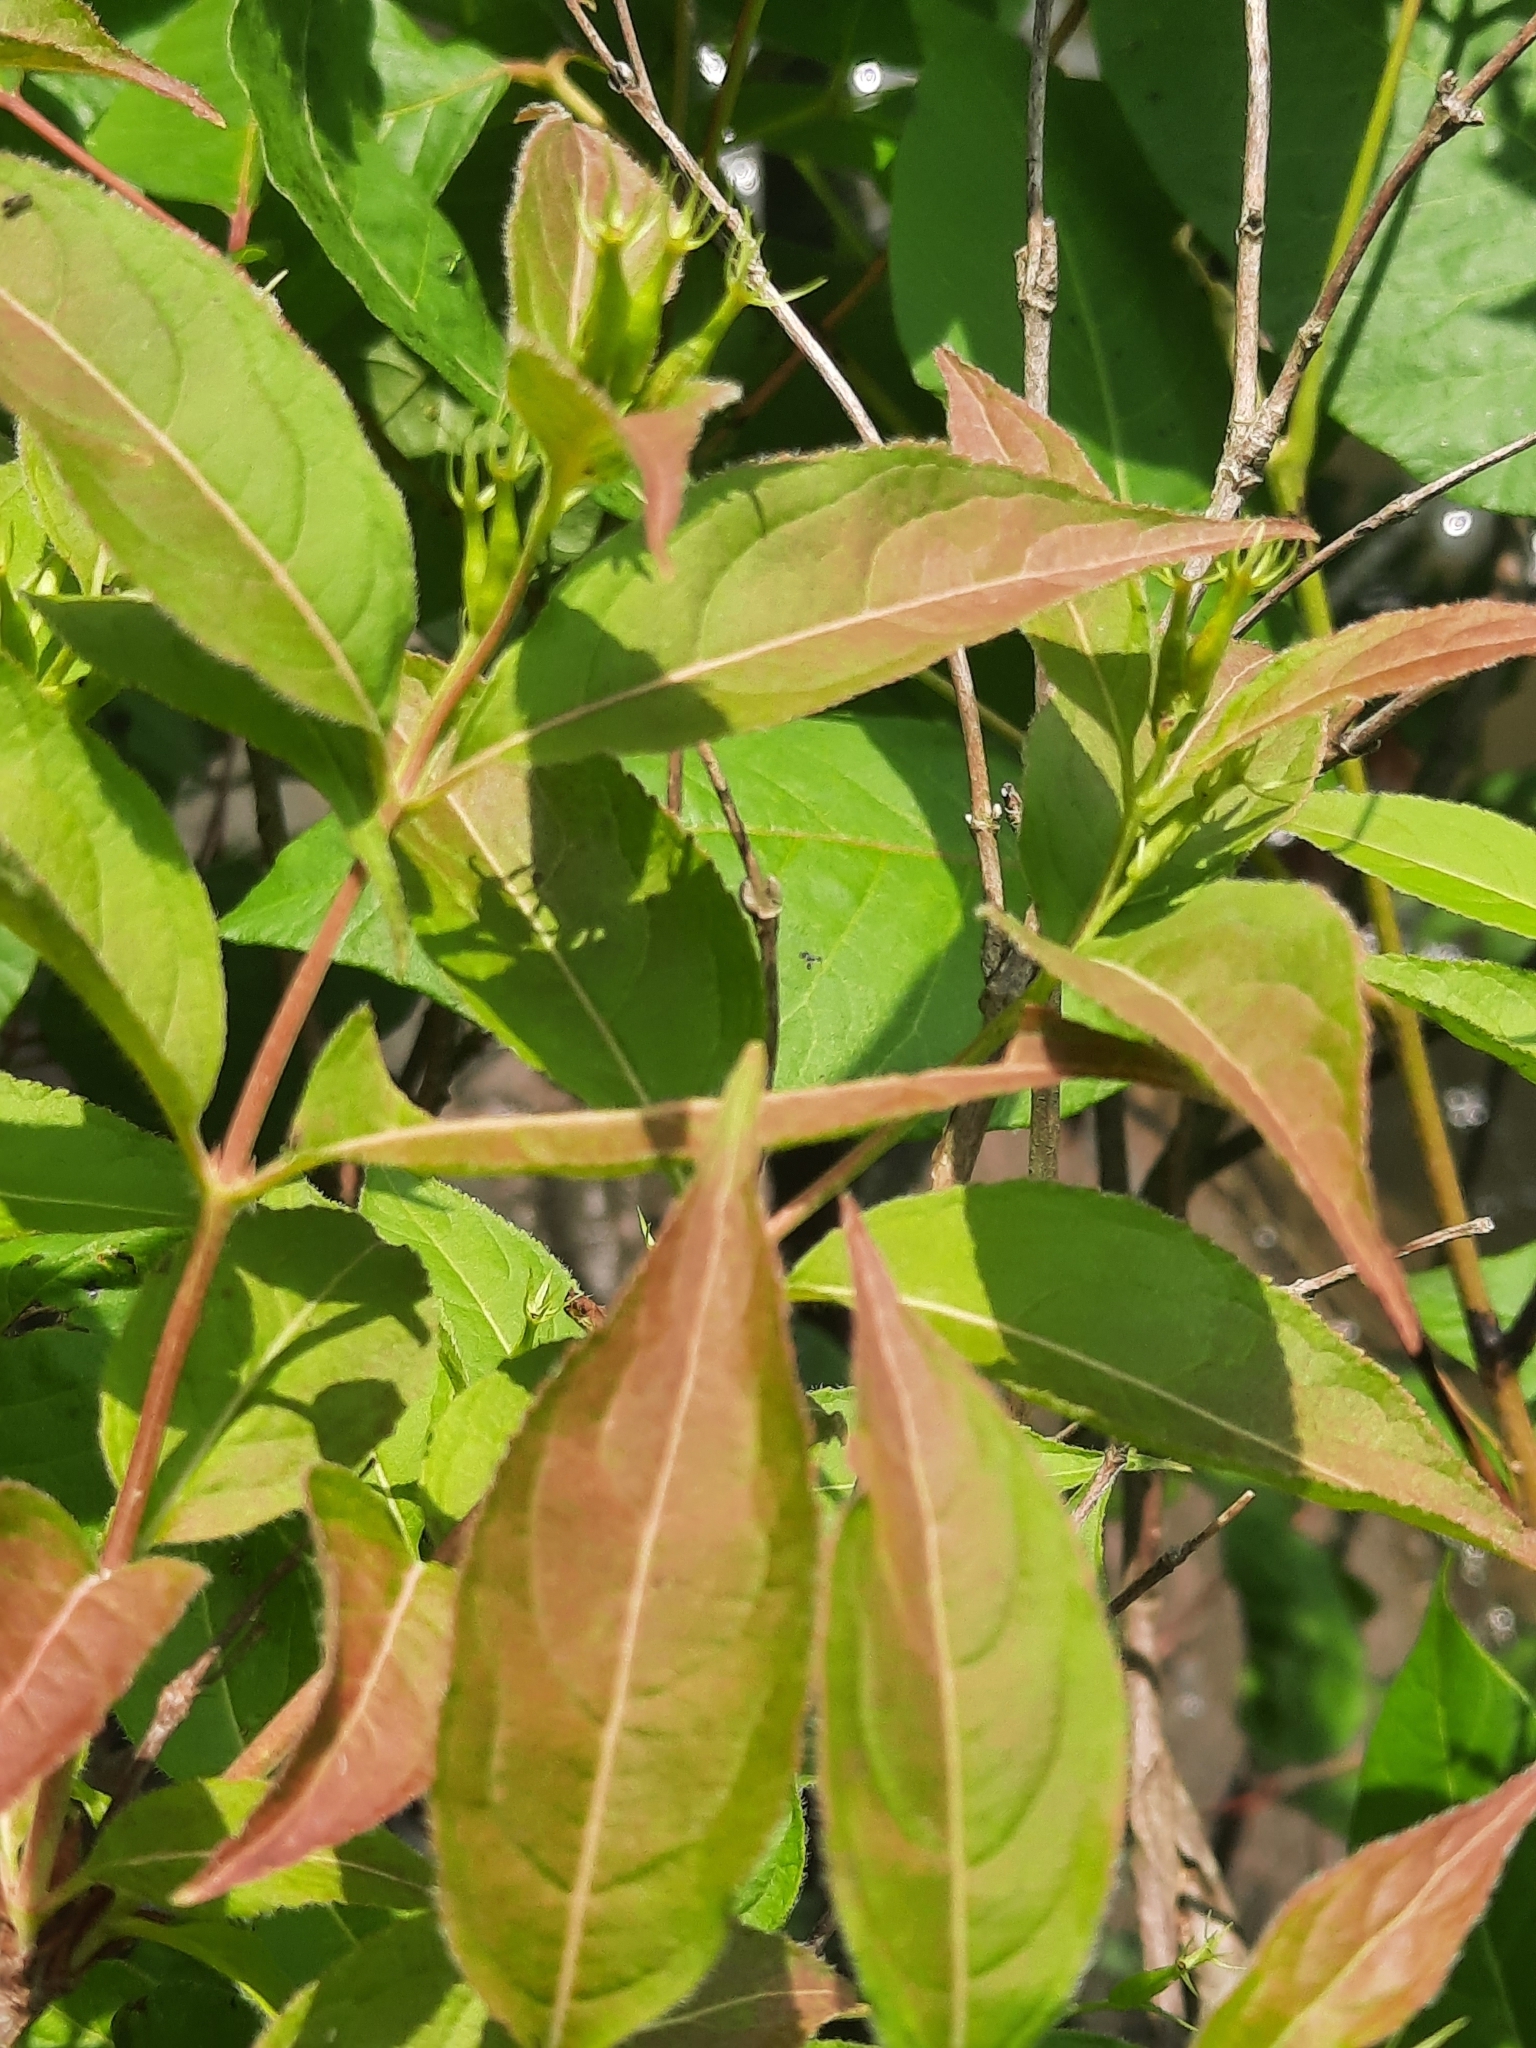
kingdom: Plantae
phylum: Tracheophyta
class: Magnoliopsida
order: Dipsacales
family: Caprifoliaceae
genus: Diervilla
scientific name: Diervilla lonicera
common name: Bush-honeysuckle
